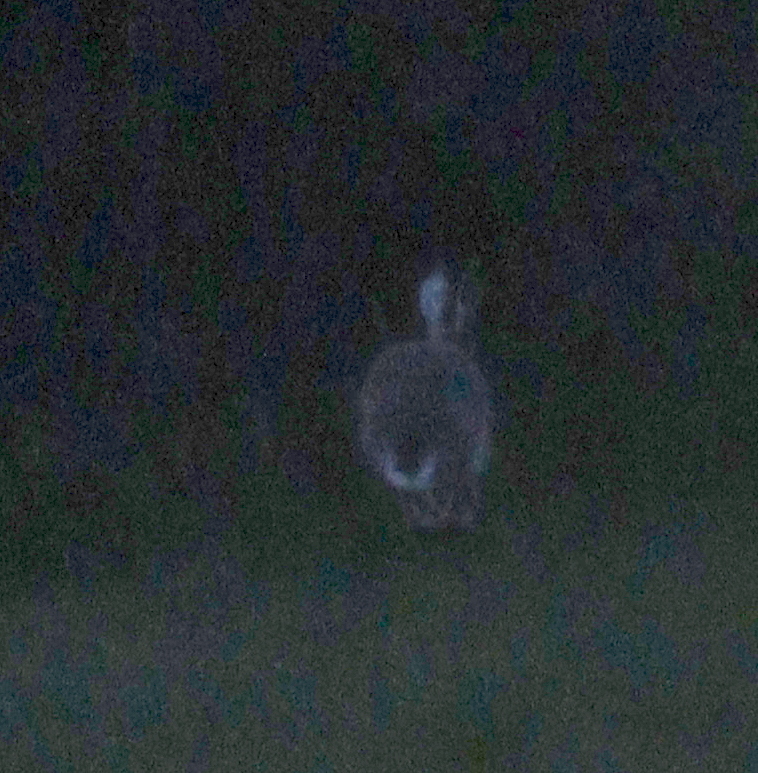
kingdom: Animalia
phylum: Chordata
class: Mammalia
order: Lagomorpha
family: Leporidae
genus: Lepus
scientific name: Lepus europaeus
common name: European hare
